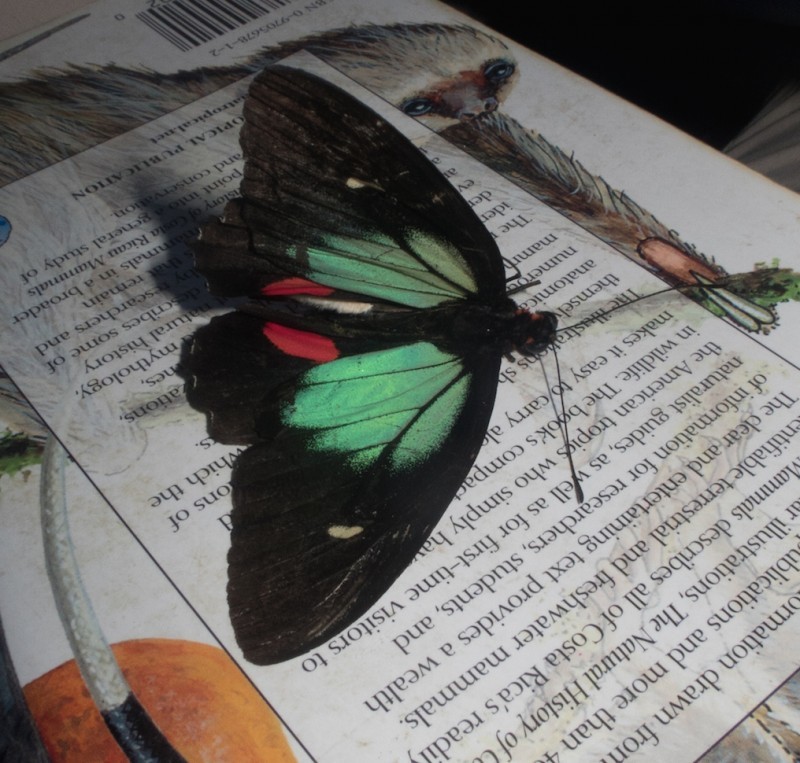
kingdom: Animalia
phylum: Arthropoda
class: Insecta
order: Lepidoptera
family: Papilionidae
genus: Parides
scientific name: Parides childrenae
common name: Green-celled cattleheart
